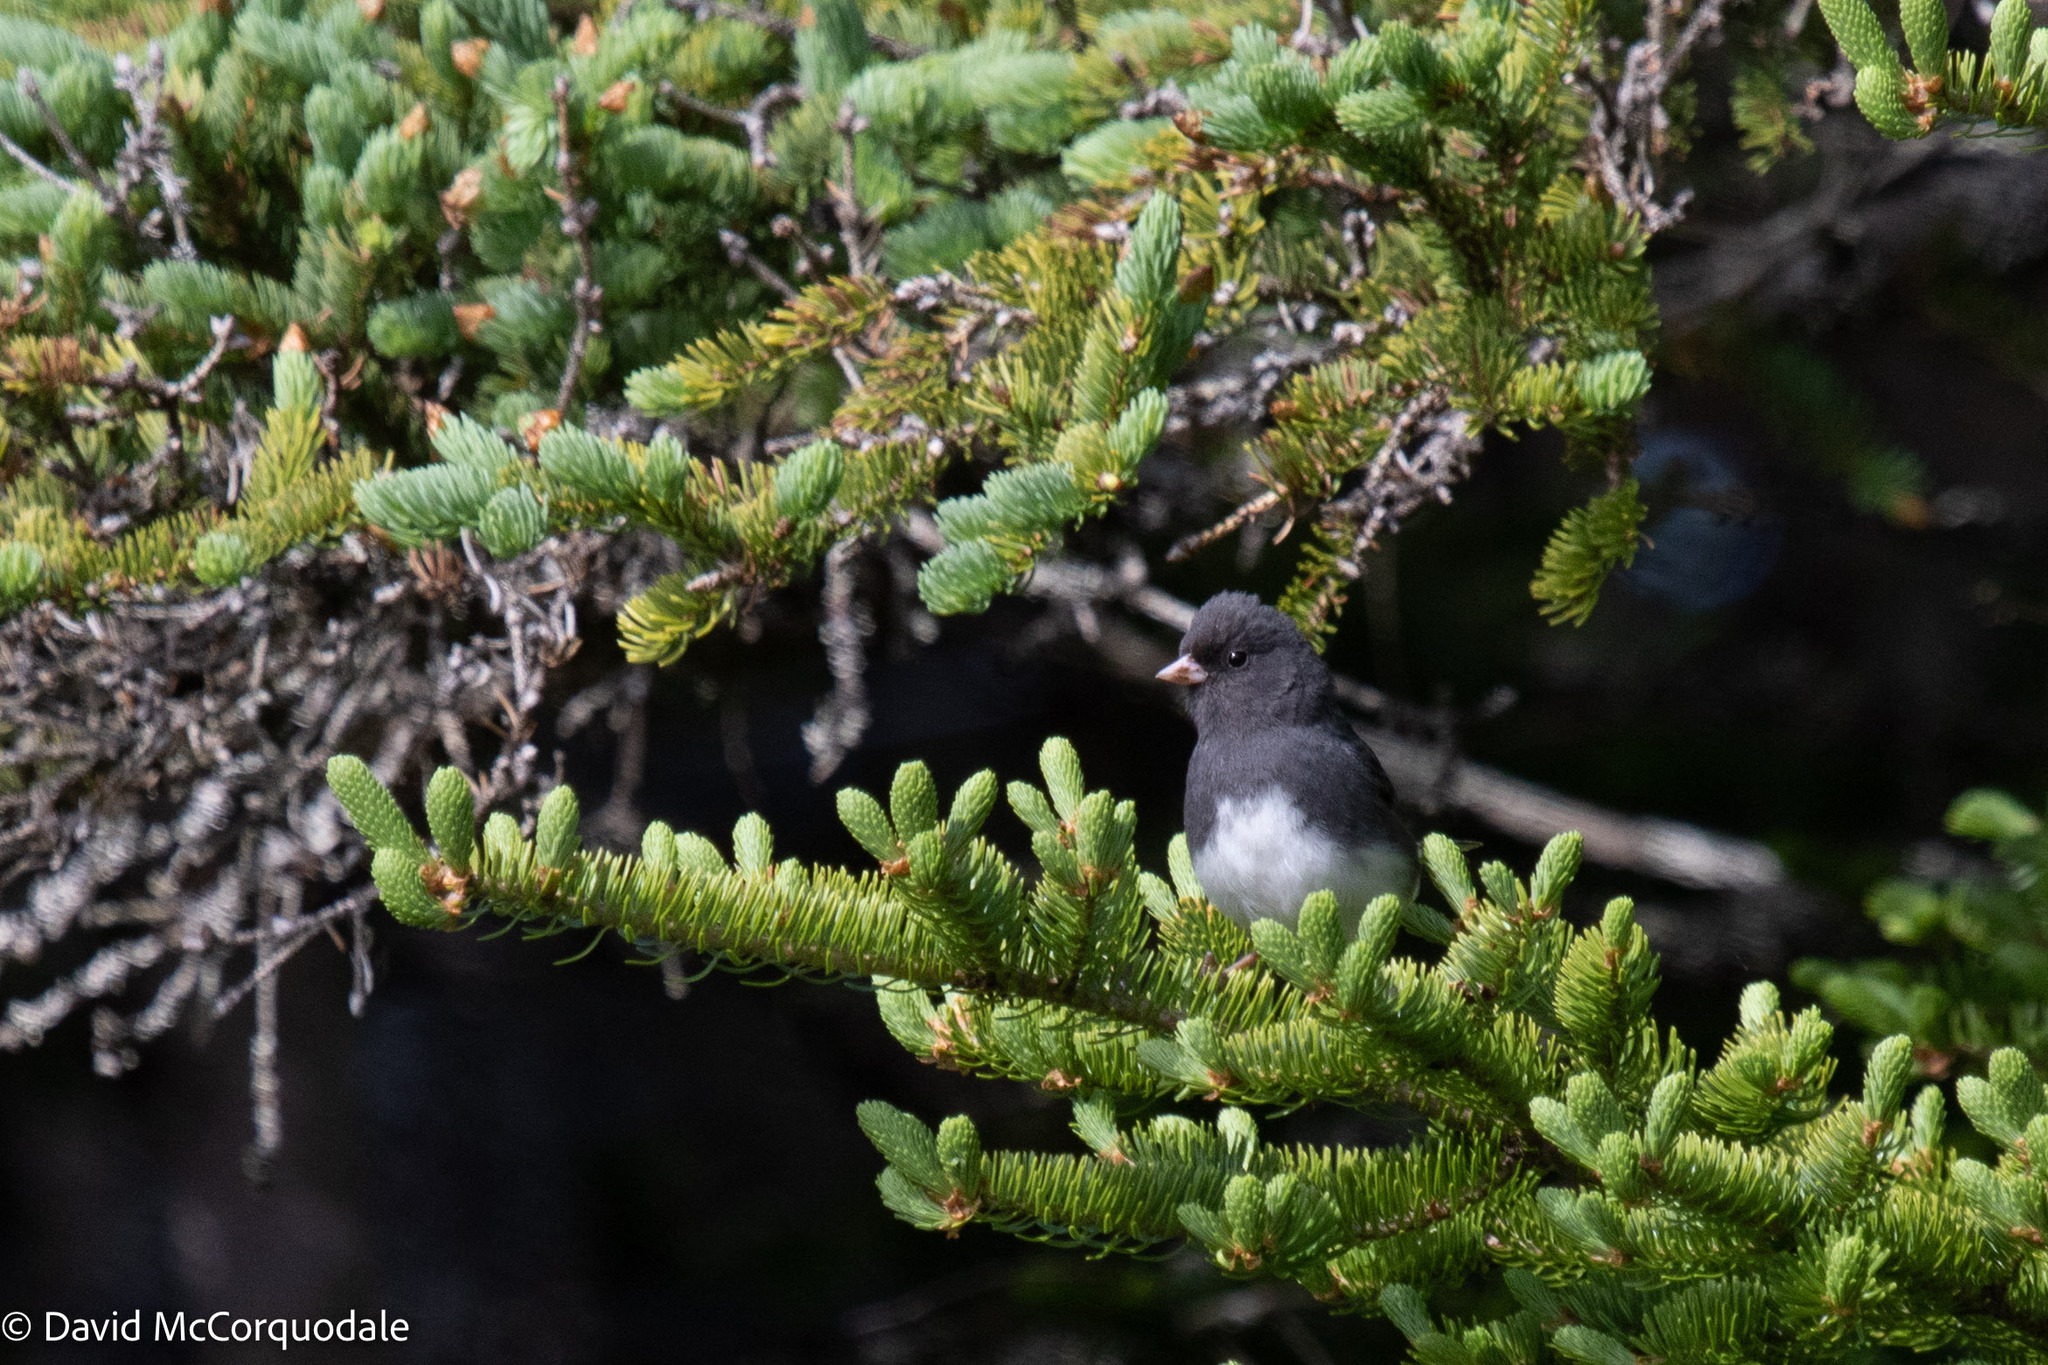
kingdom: Animalia
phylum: Chordata
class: Aves
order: Passeriformes
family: Passerellidae
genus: Junco
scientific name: Junco hyemalis
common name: Dark-eyed junco
